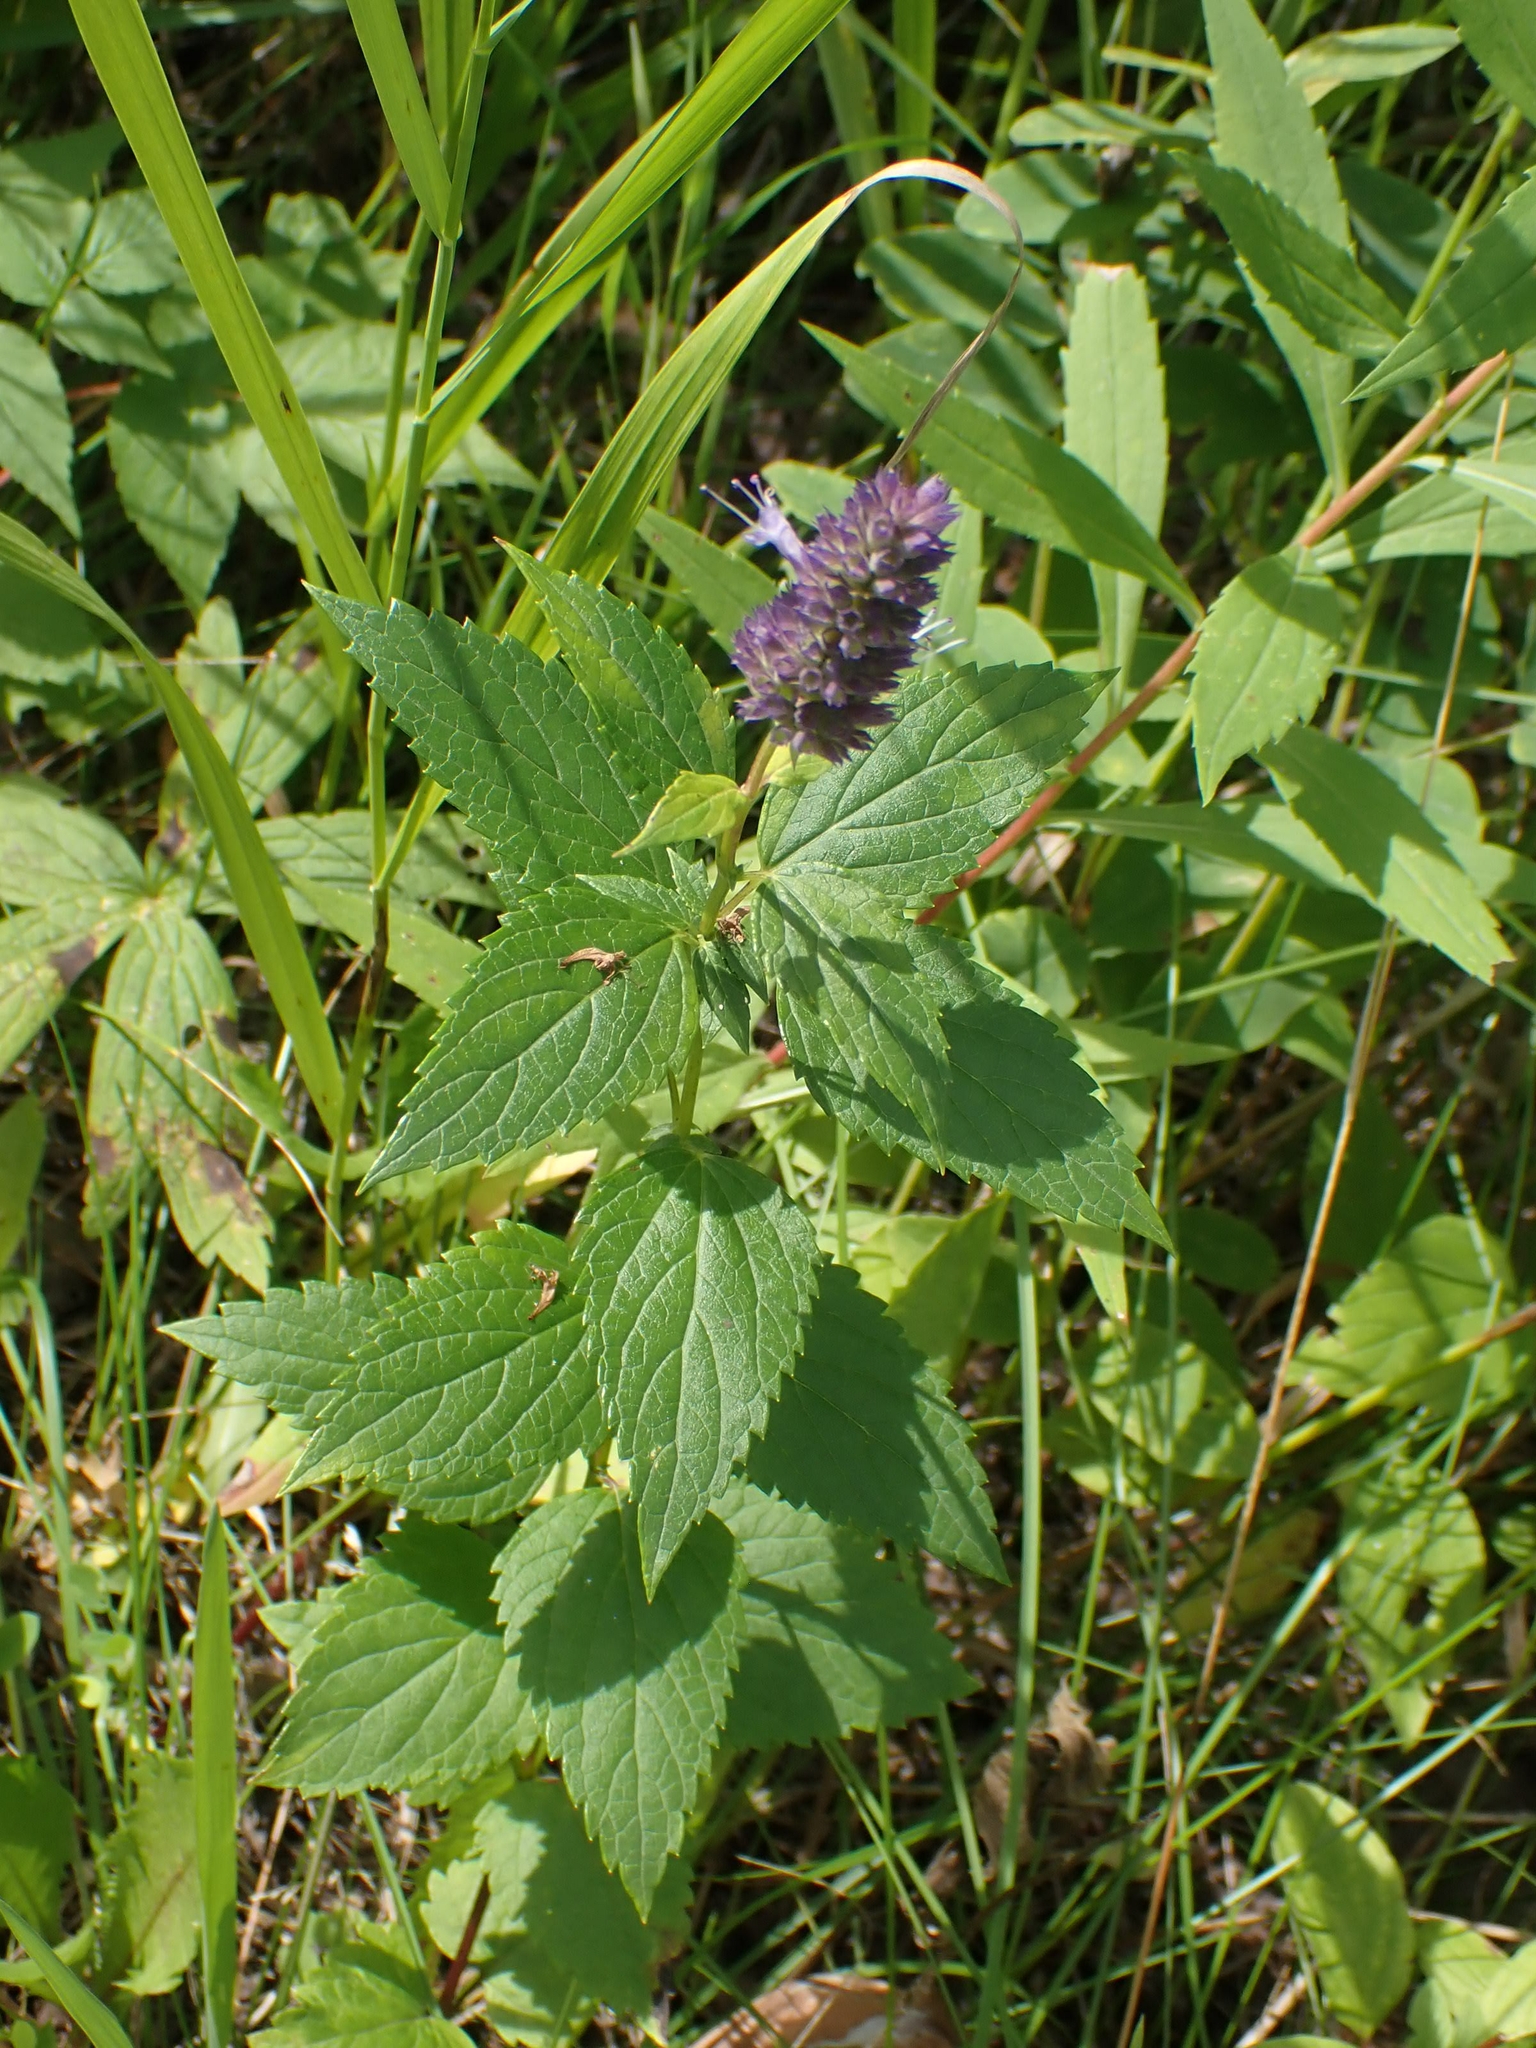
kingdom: Plantae
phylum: Tracheophyta
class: Magnoliopsida
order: Lamiales
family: Lamiaceae
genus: Agastache
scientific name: Agastache foeniculum
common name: Anise hyssop
